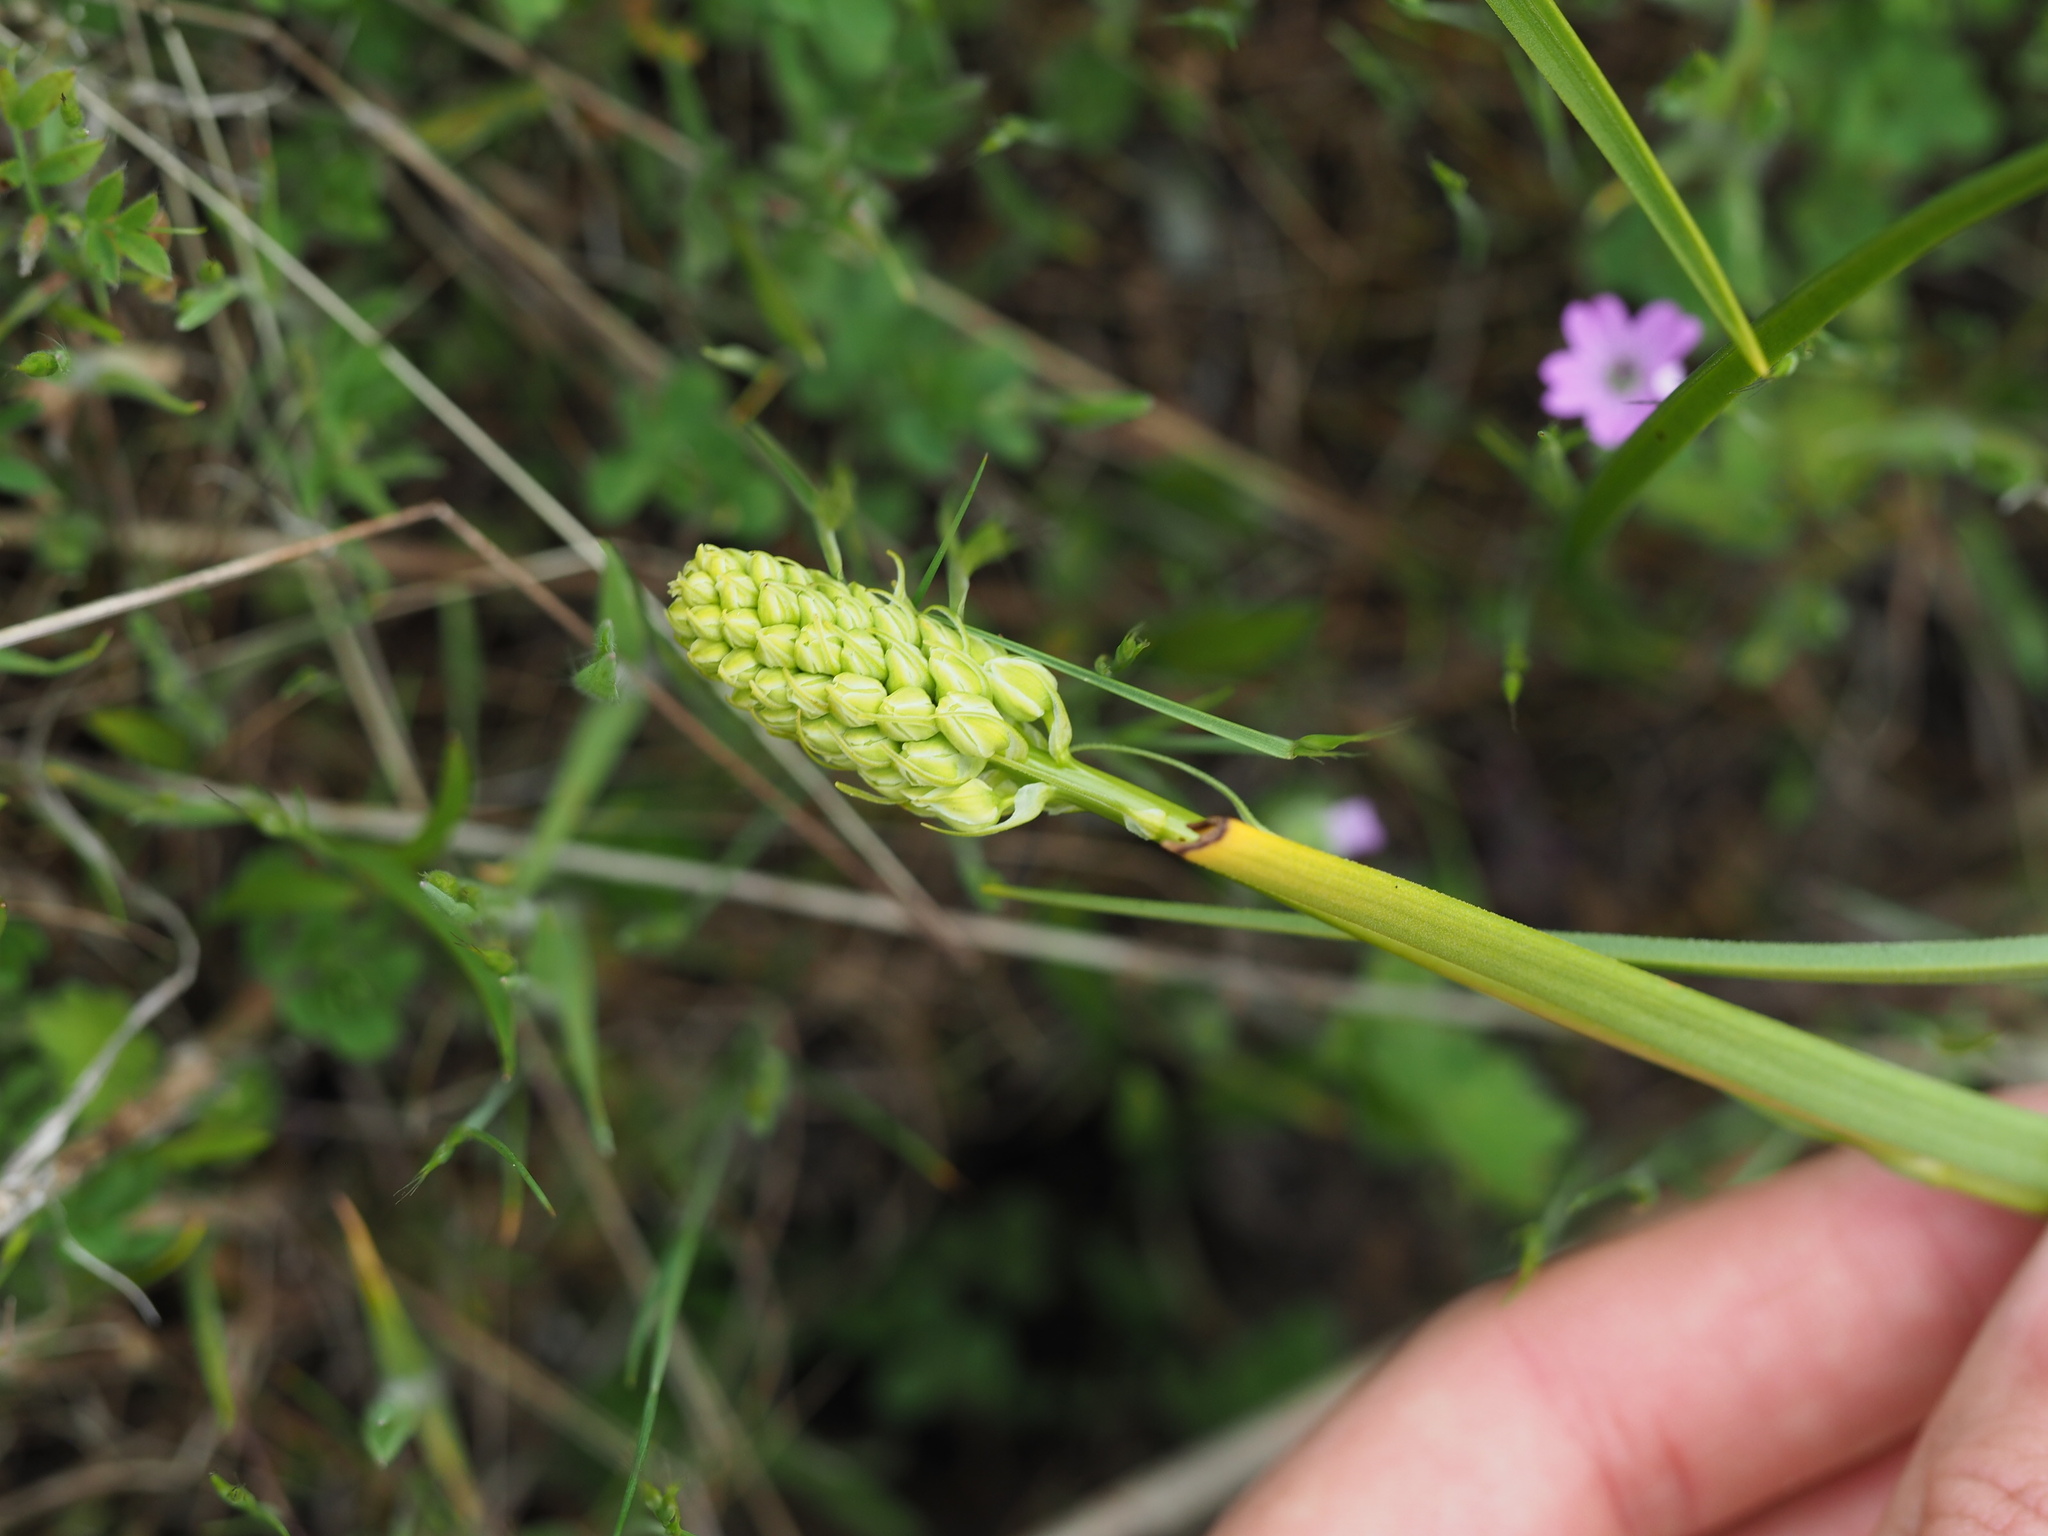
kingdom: Plantae
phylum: Tracheophyta
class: Liliopsida
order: Liliales
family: Melanthiaceae
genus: Toxicoscordion
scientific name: Toxicoscordion venenosum
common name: Meadow death camas
